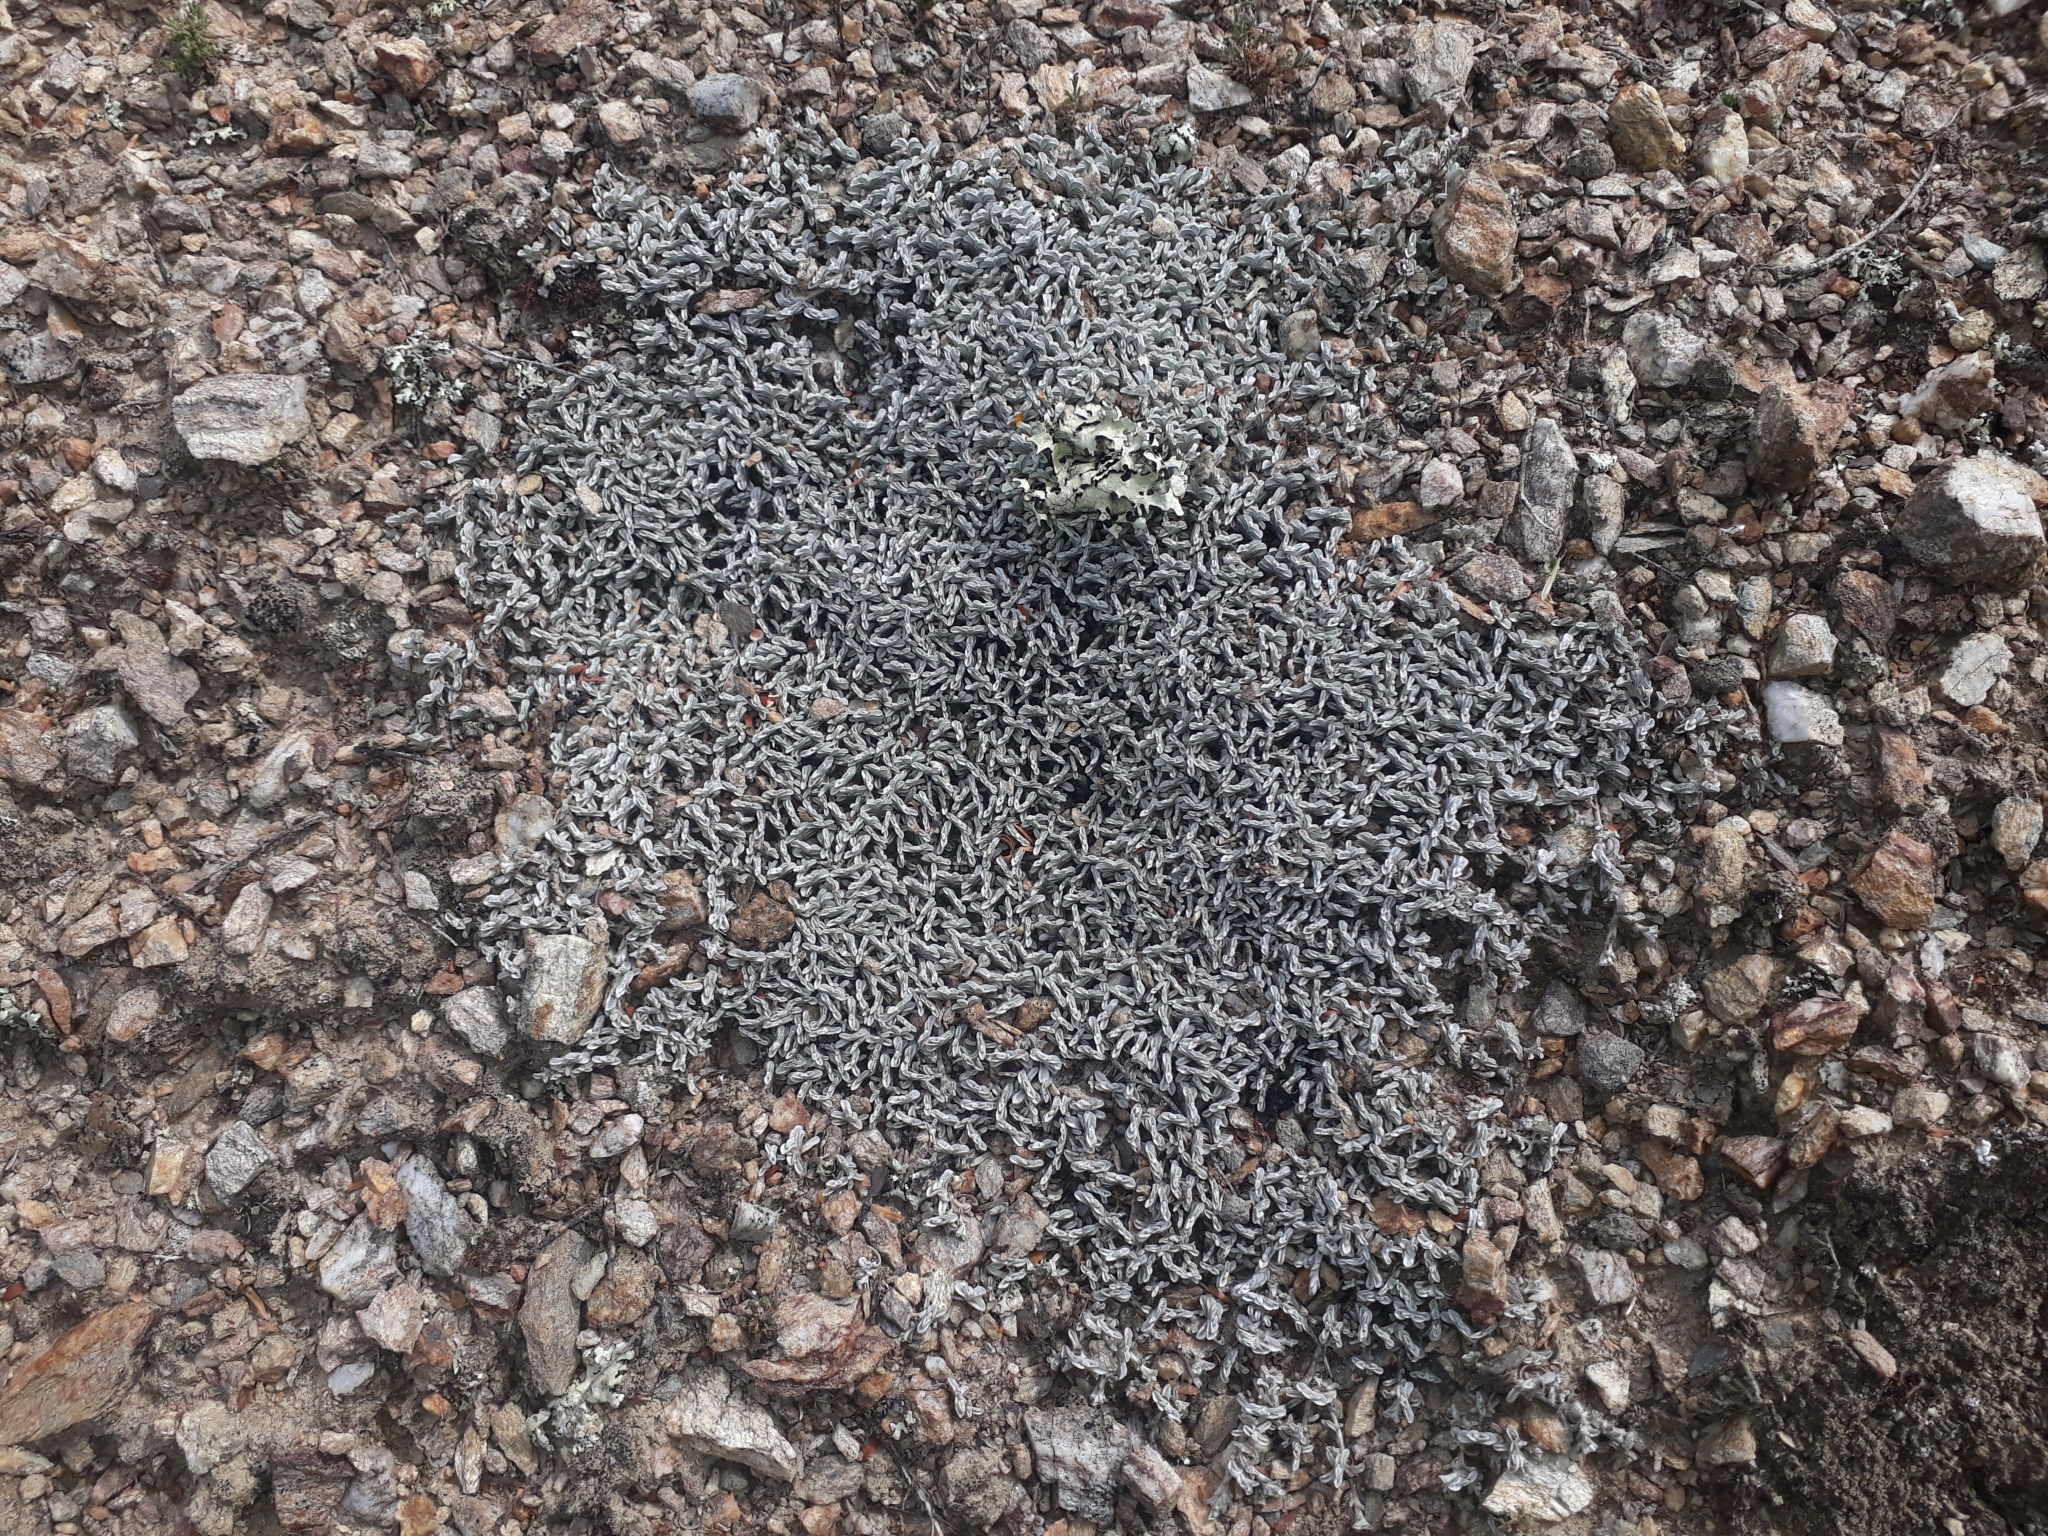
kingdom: Plantae
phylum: Tracheophyta
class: Magnoliopsida
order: Asterales
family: Asteraceae
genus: Raoulia
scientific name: Raoulia monroi
